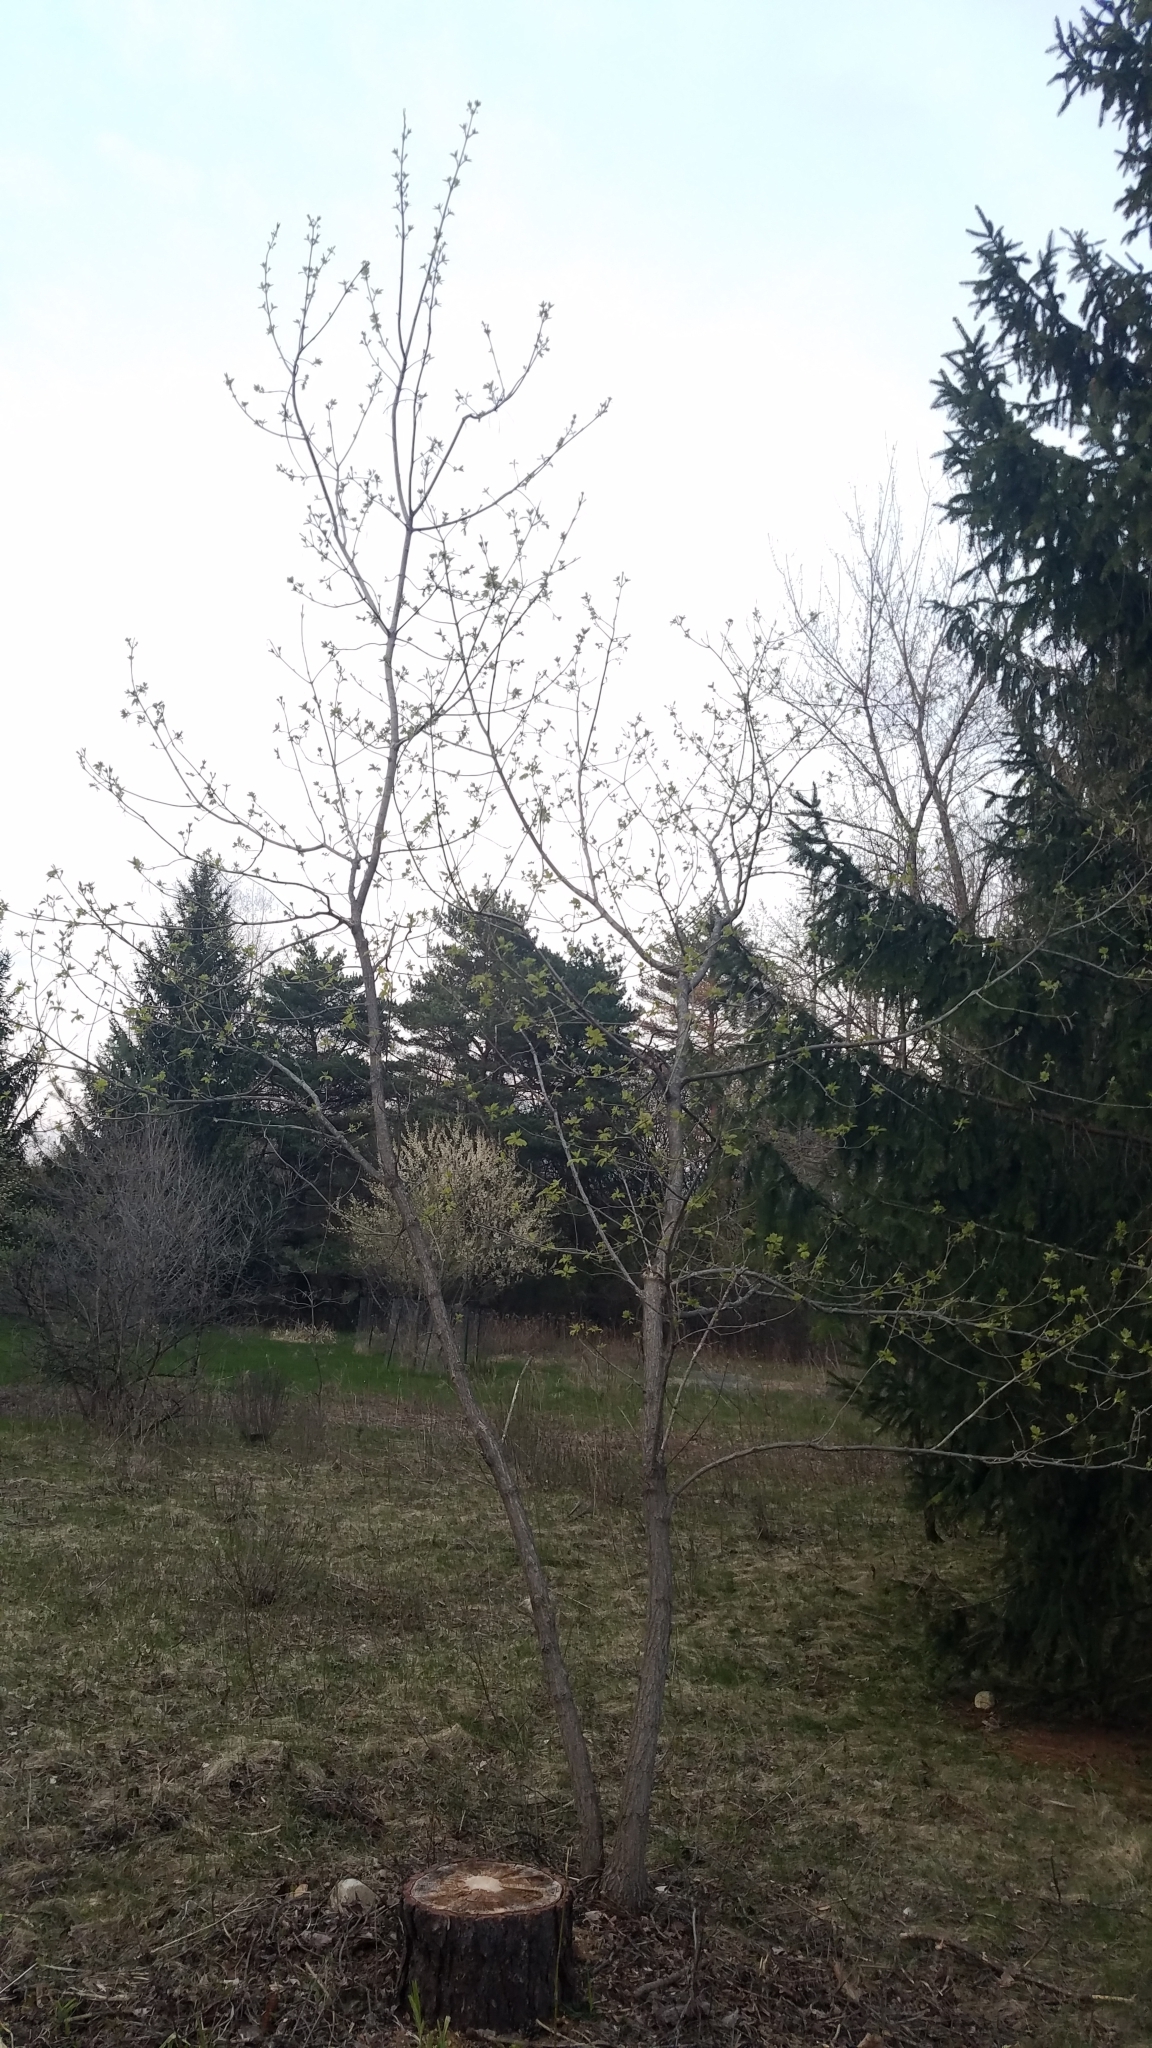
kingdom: Plantae
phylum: Tracheophyta
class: Magnoliopsida
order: Sapindales
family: Sapindaceae
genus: Acer
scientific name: Acer negundo
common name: Ashleaf maple
